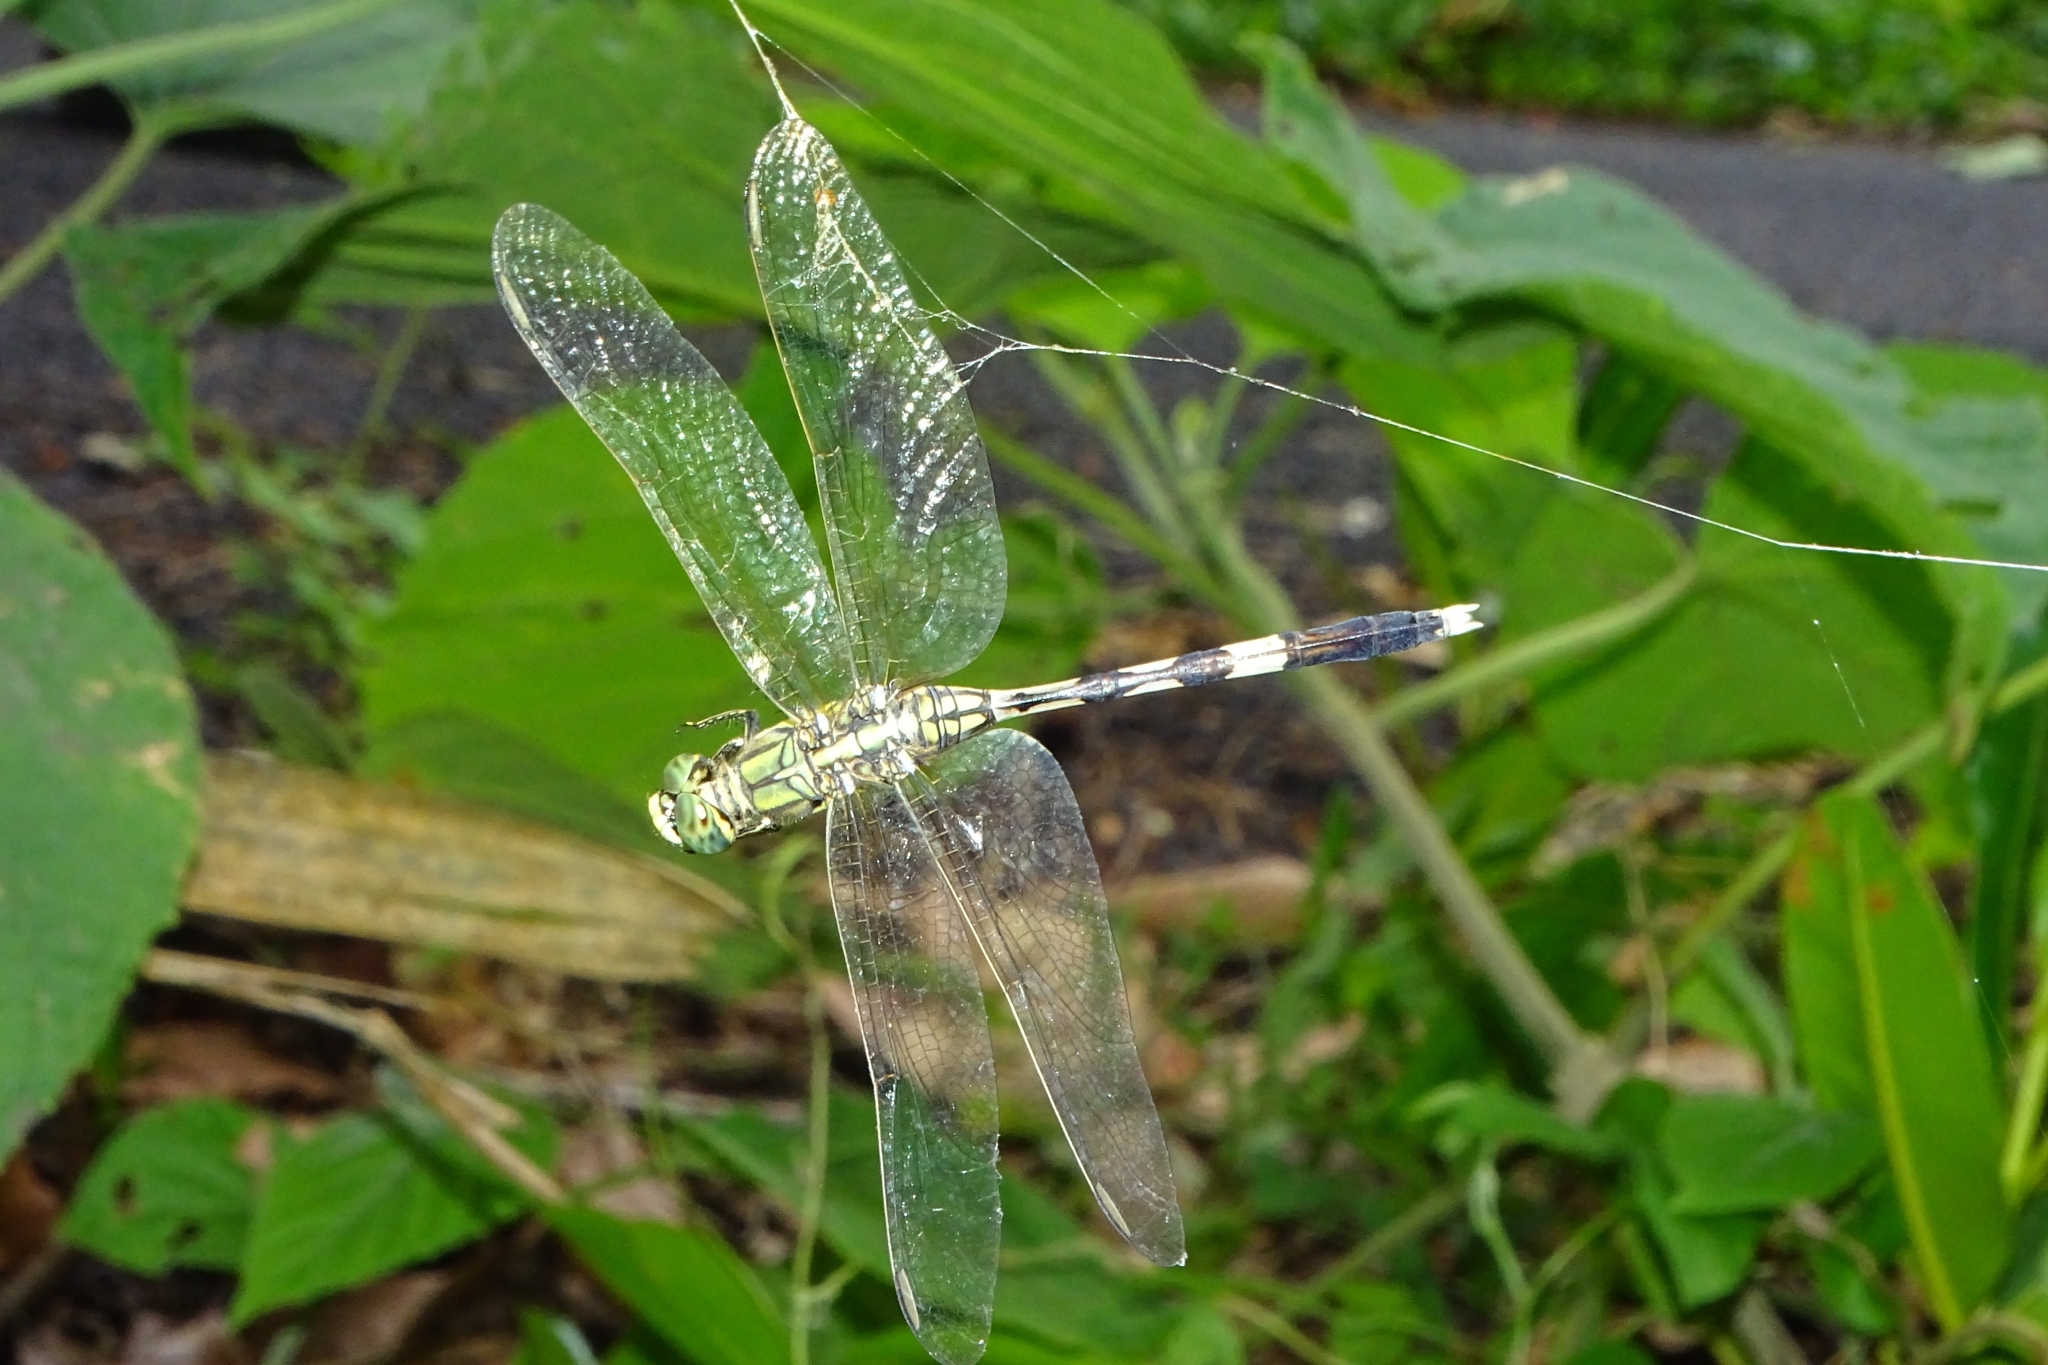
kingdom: Animalia
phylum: Arthropoda
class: Insecta
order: Odonata
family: Libellulidae
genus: Orthetrum
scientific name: Orthetrum sabina
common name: Slender skimmer
